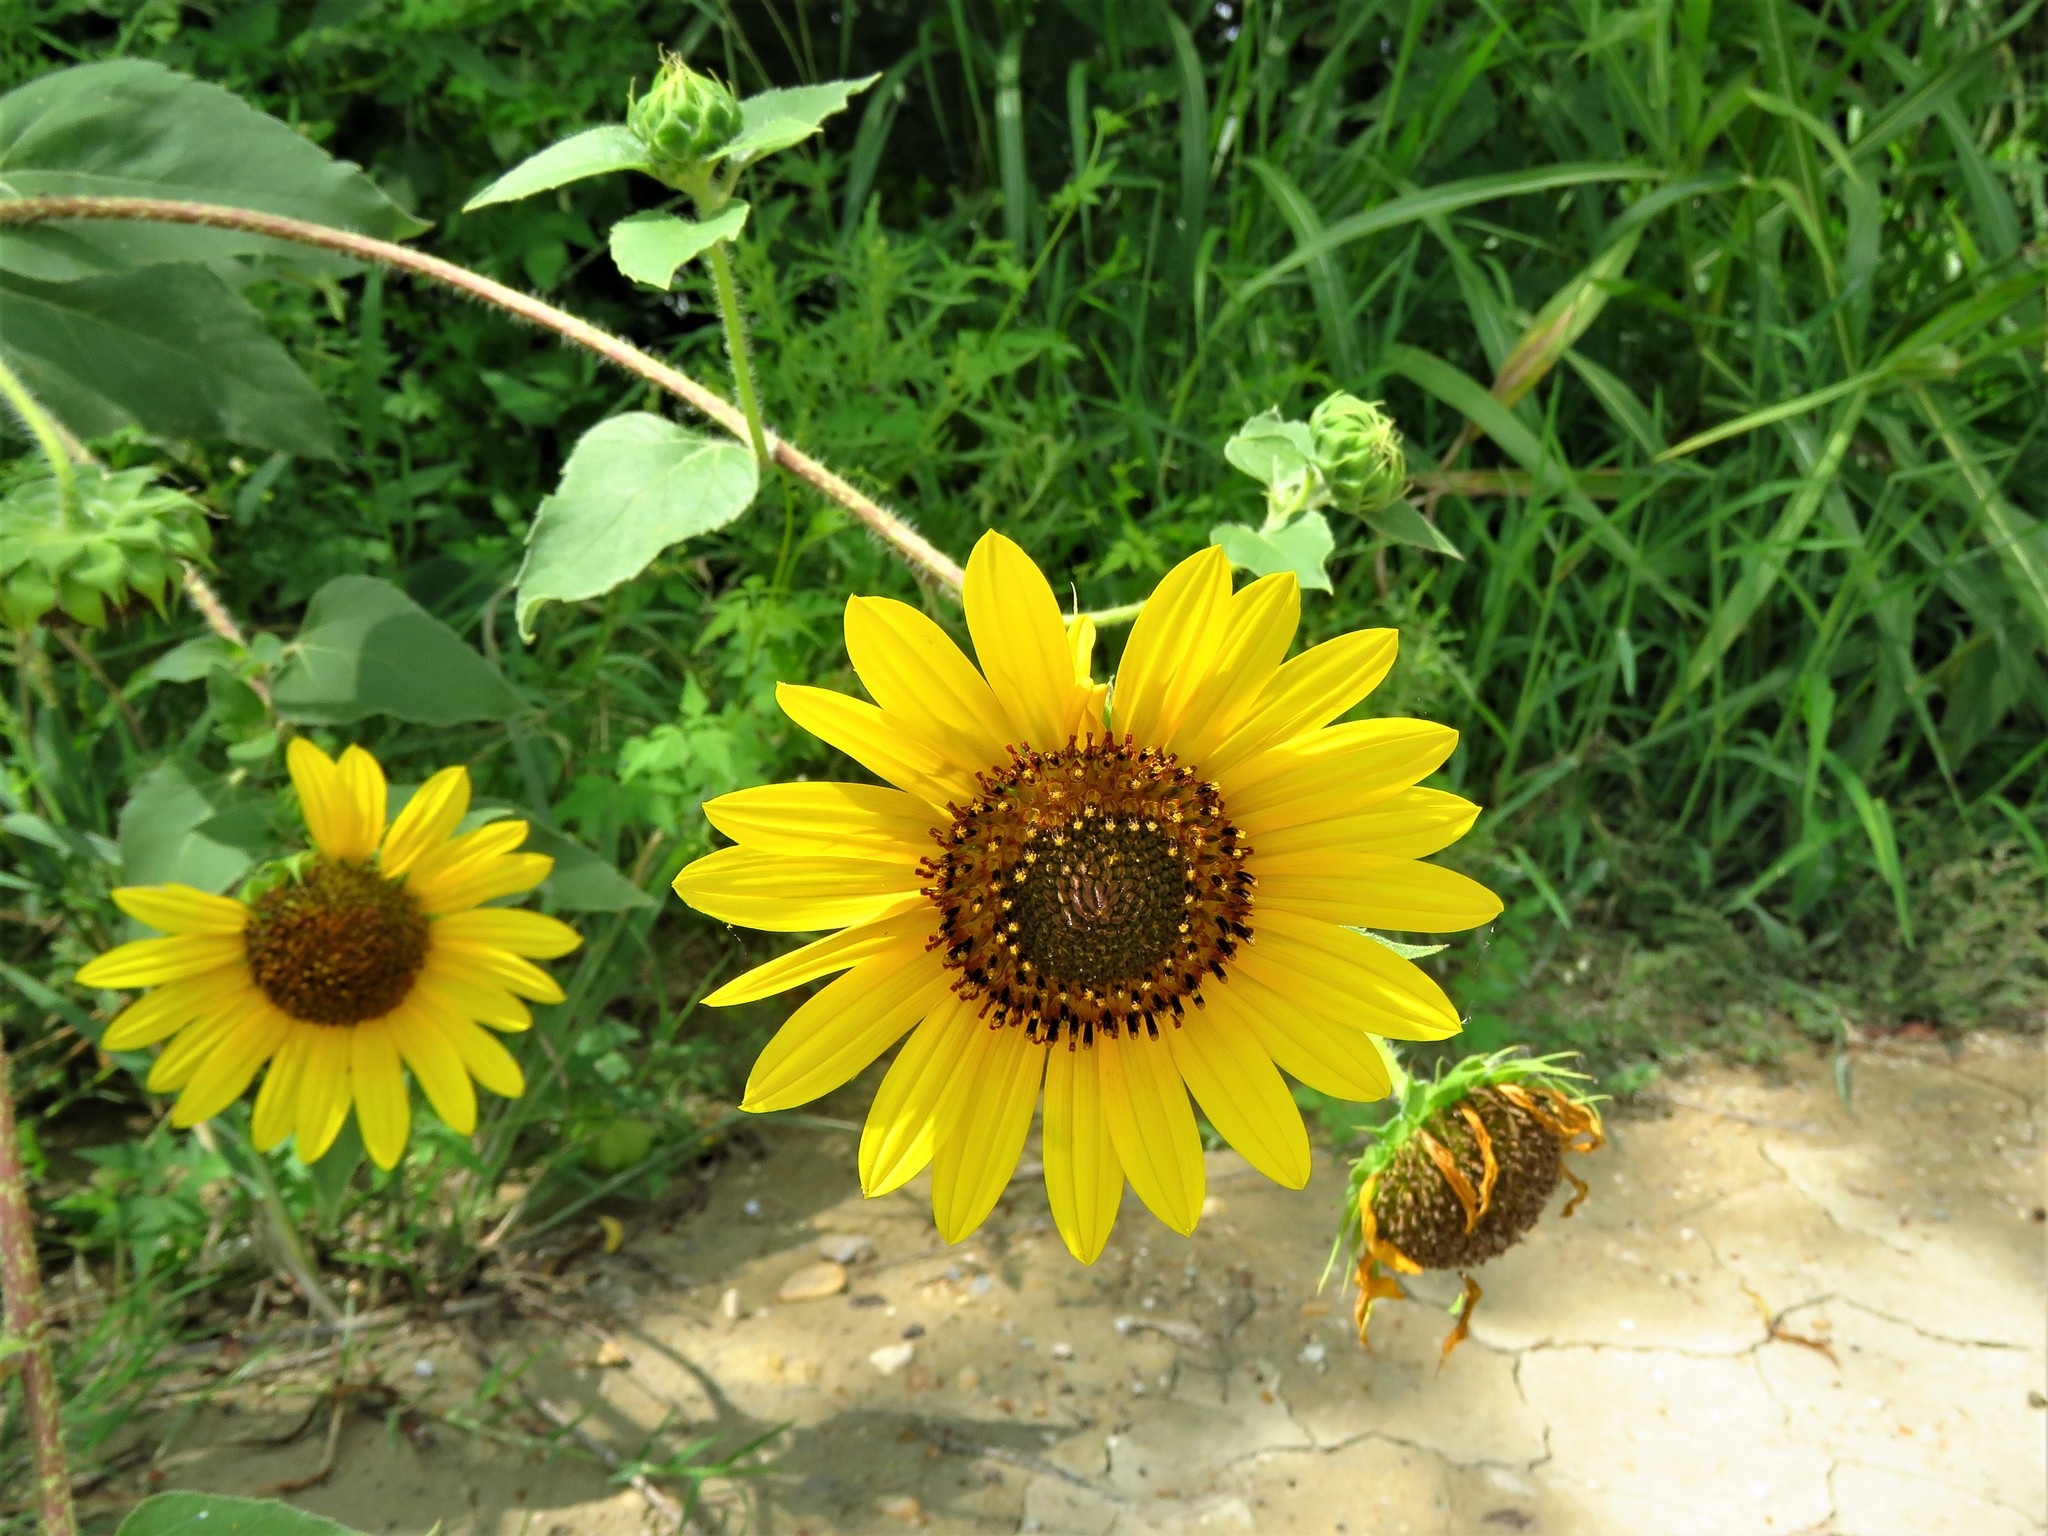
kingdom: Plantae
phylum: Tracheophyta
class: Magnoliopsida
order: Asterales
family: Asteraceae
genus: Helianthus
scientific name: Helianthus annuus
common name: Sunflower
